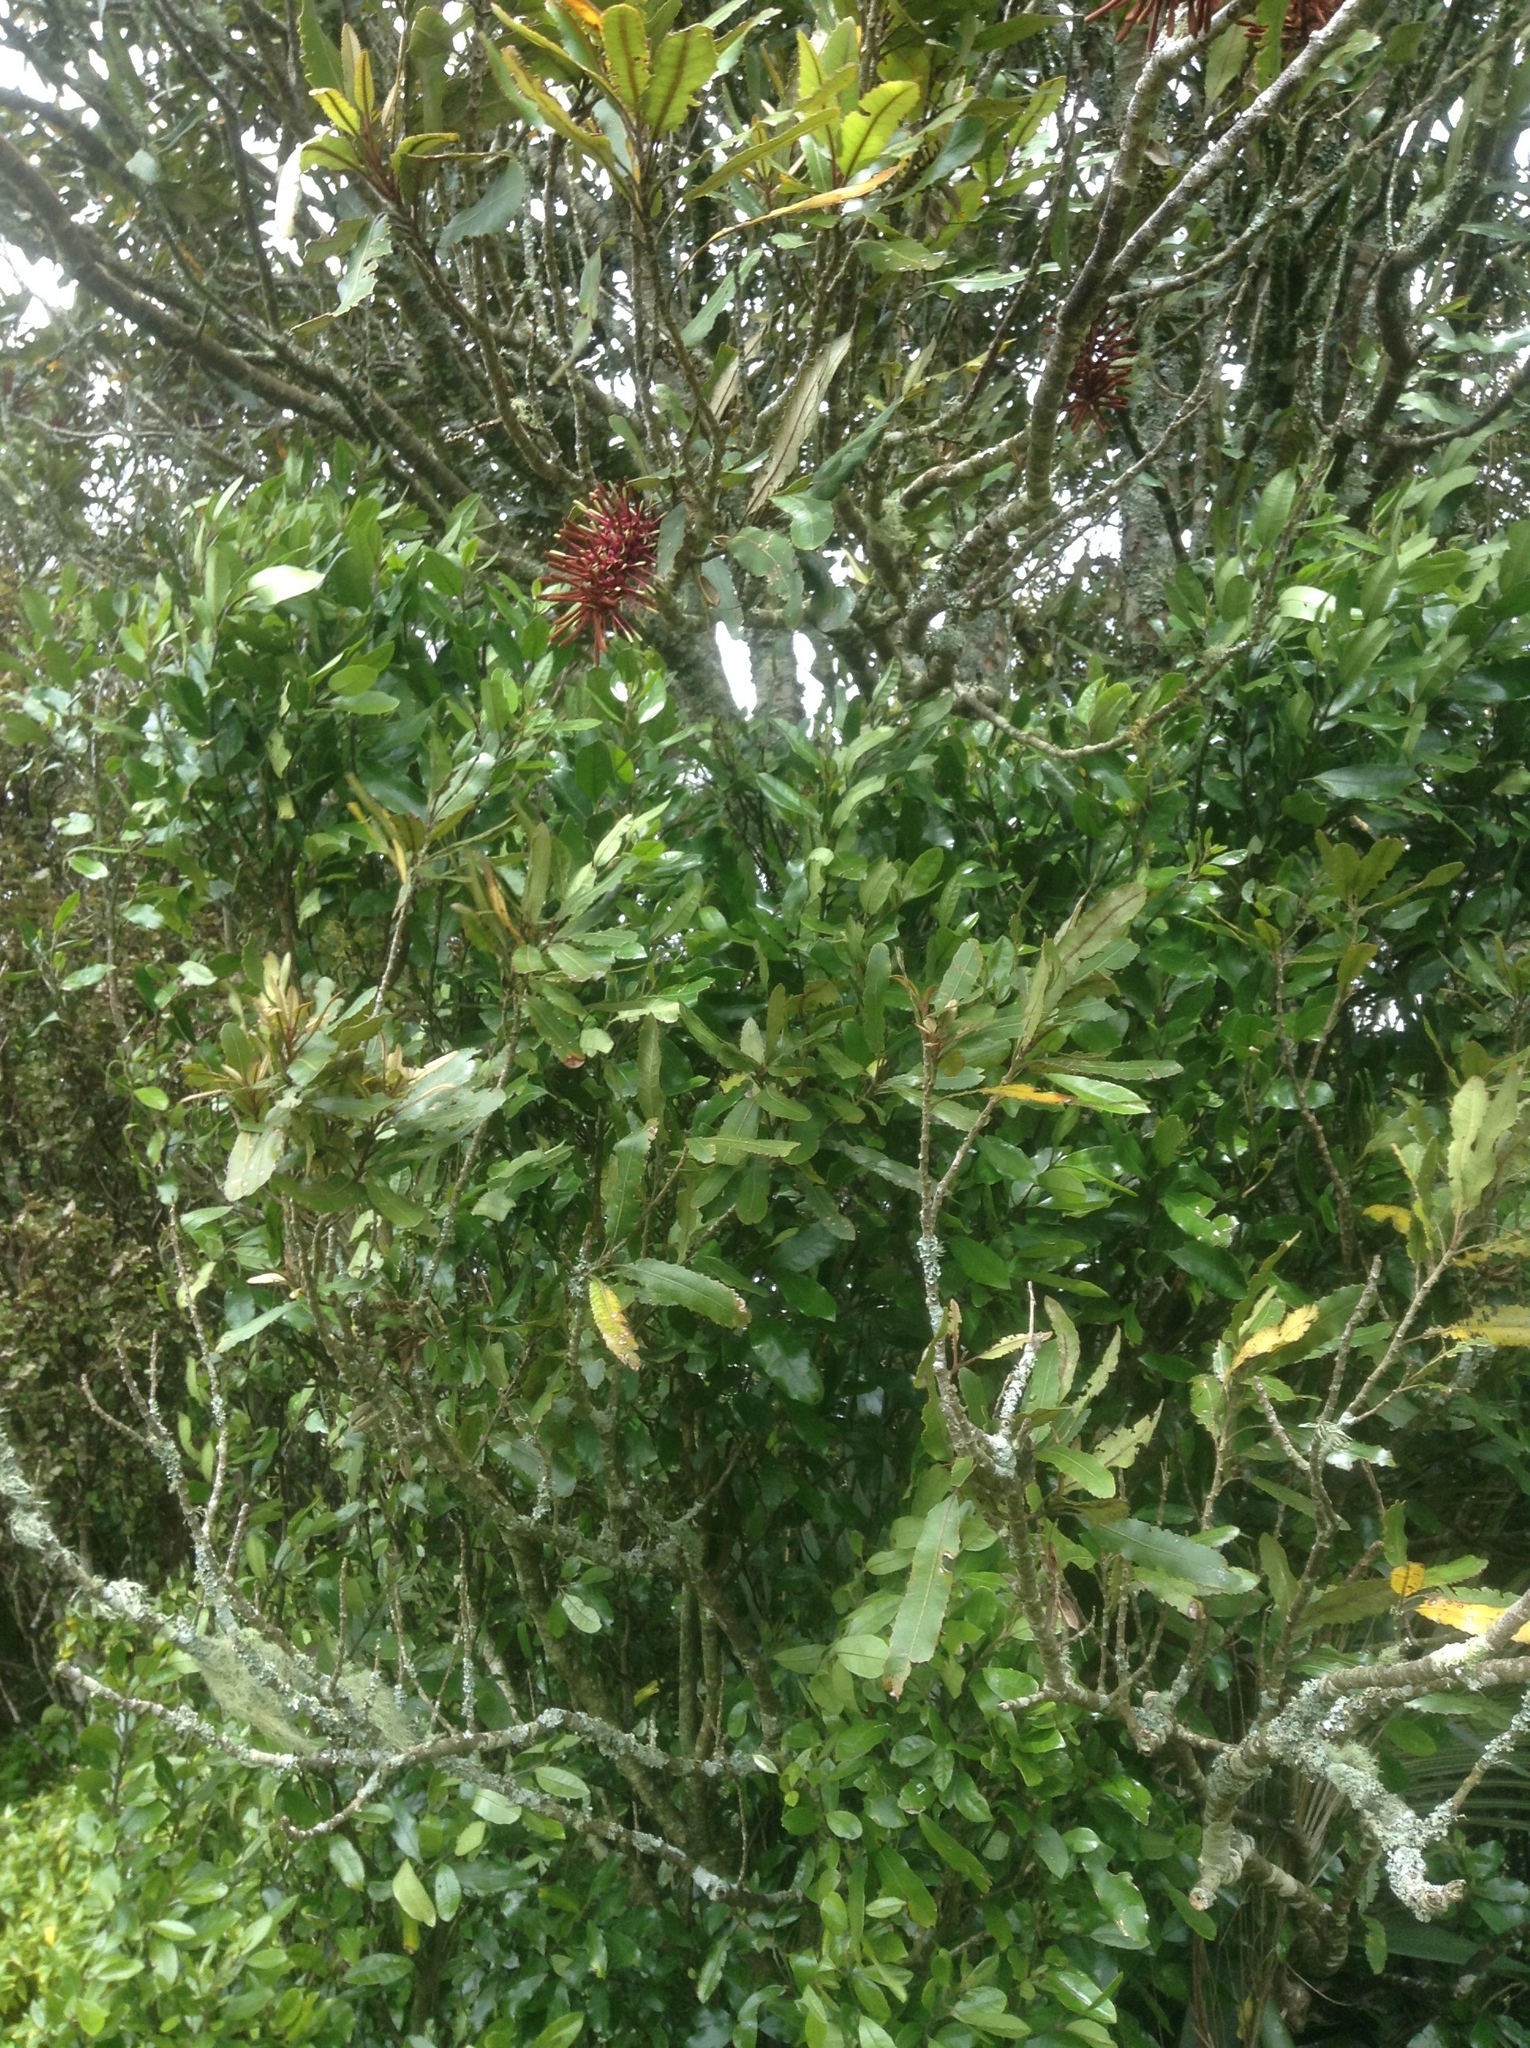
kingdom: Plantae
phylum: Tracheophyta
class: Magnoliopsida
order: Proteales
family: Proteaceae
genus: Knightia
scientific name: Knightia excelsa
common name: New zealand-honeysuckle
